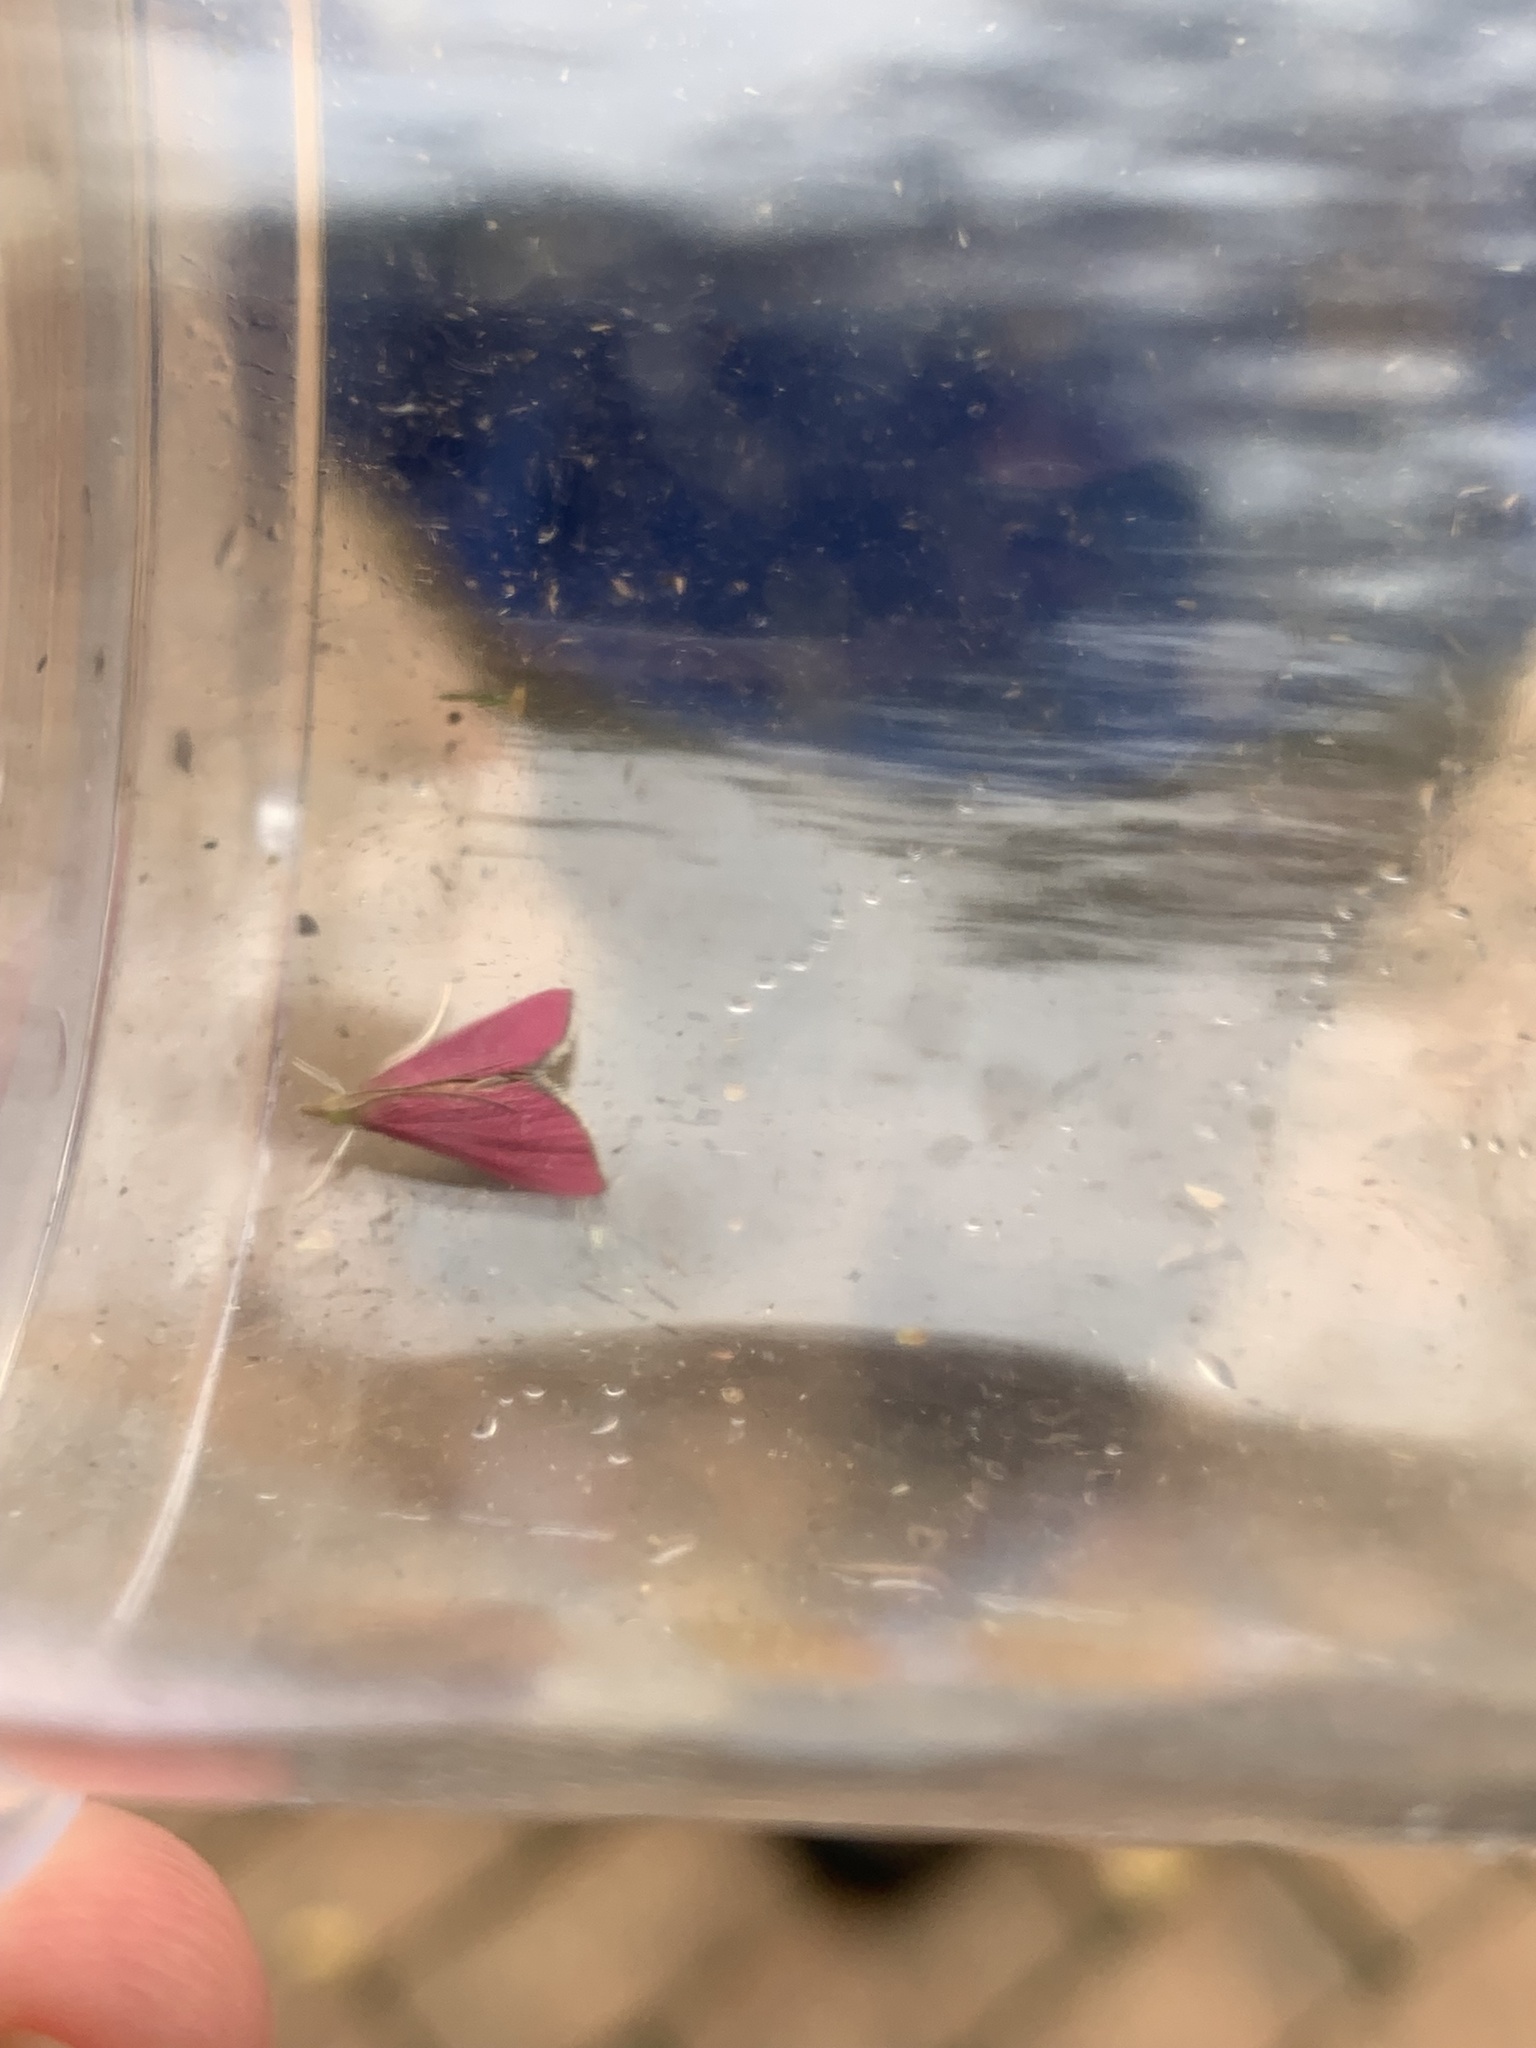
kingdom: Animalia
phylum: Arthropoda
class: Insecta
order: Lepidoptera
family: Crambidae
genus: Pyrausta
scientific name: Pyrausta inornatalis
